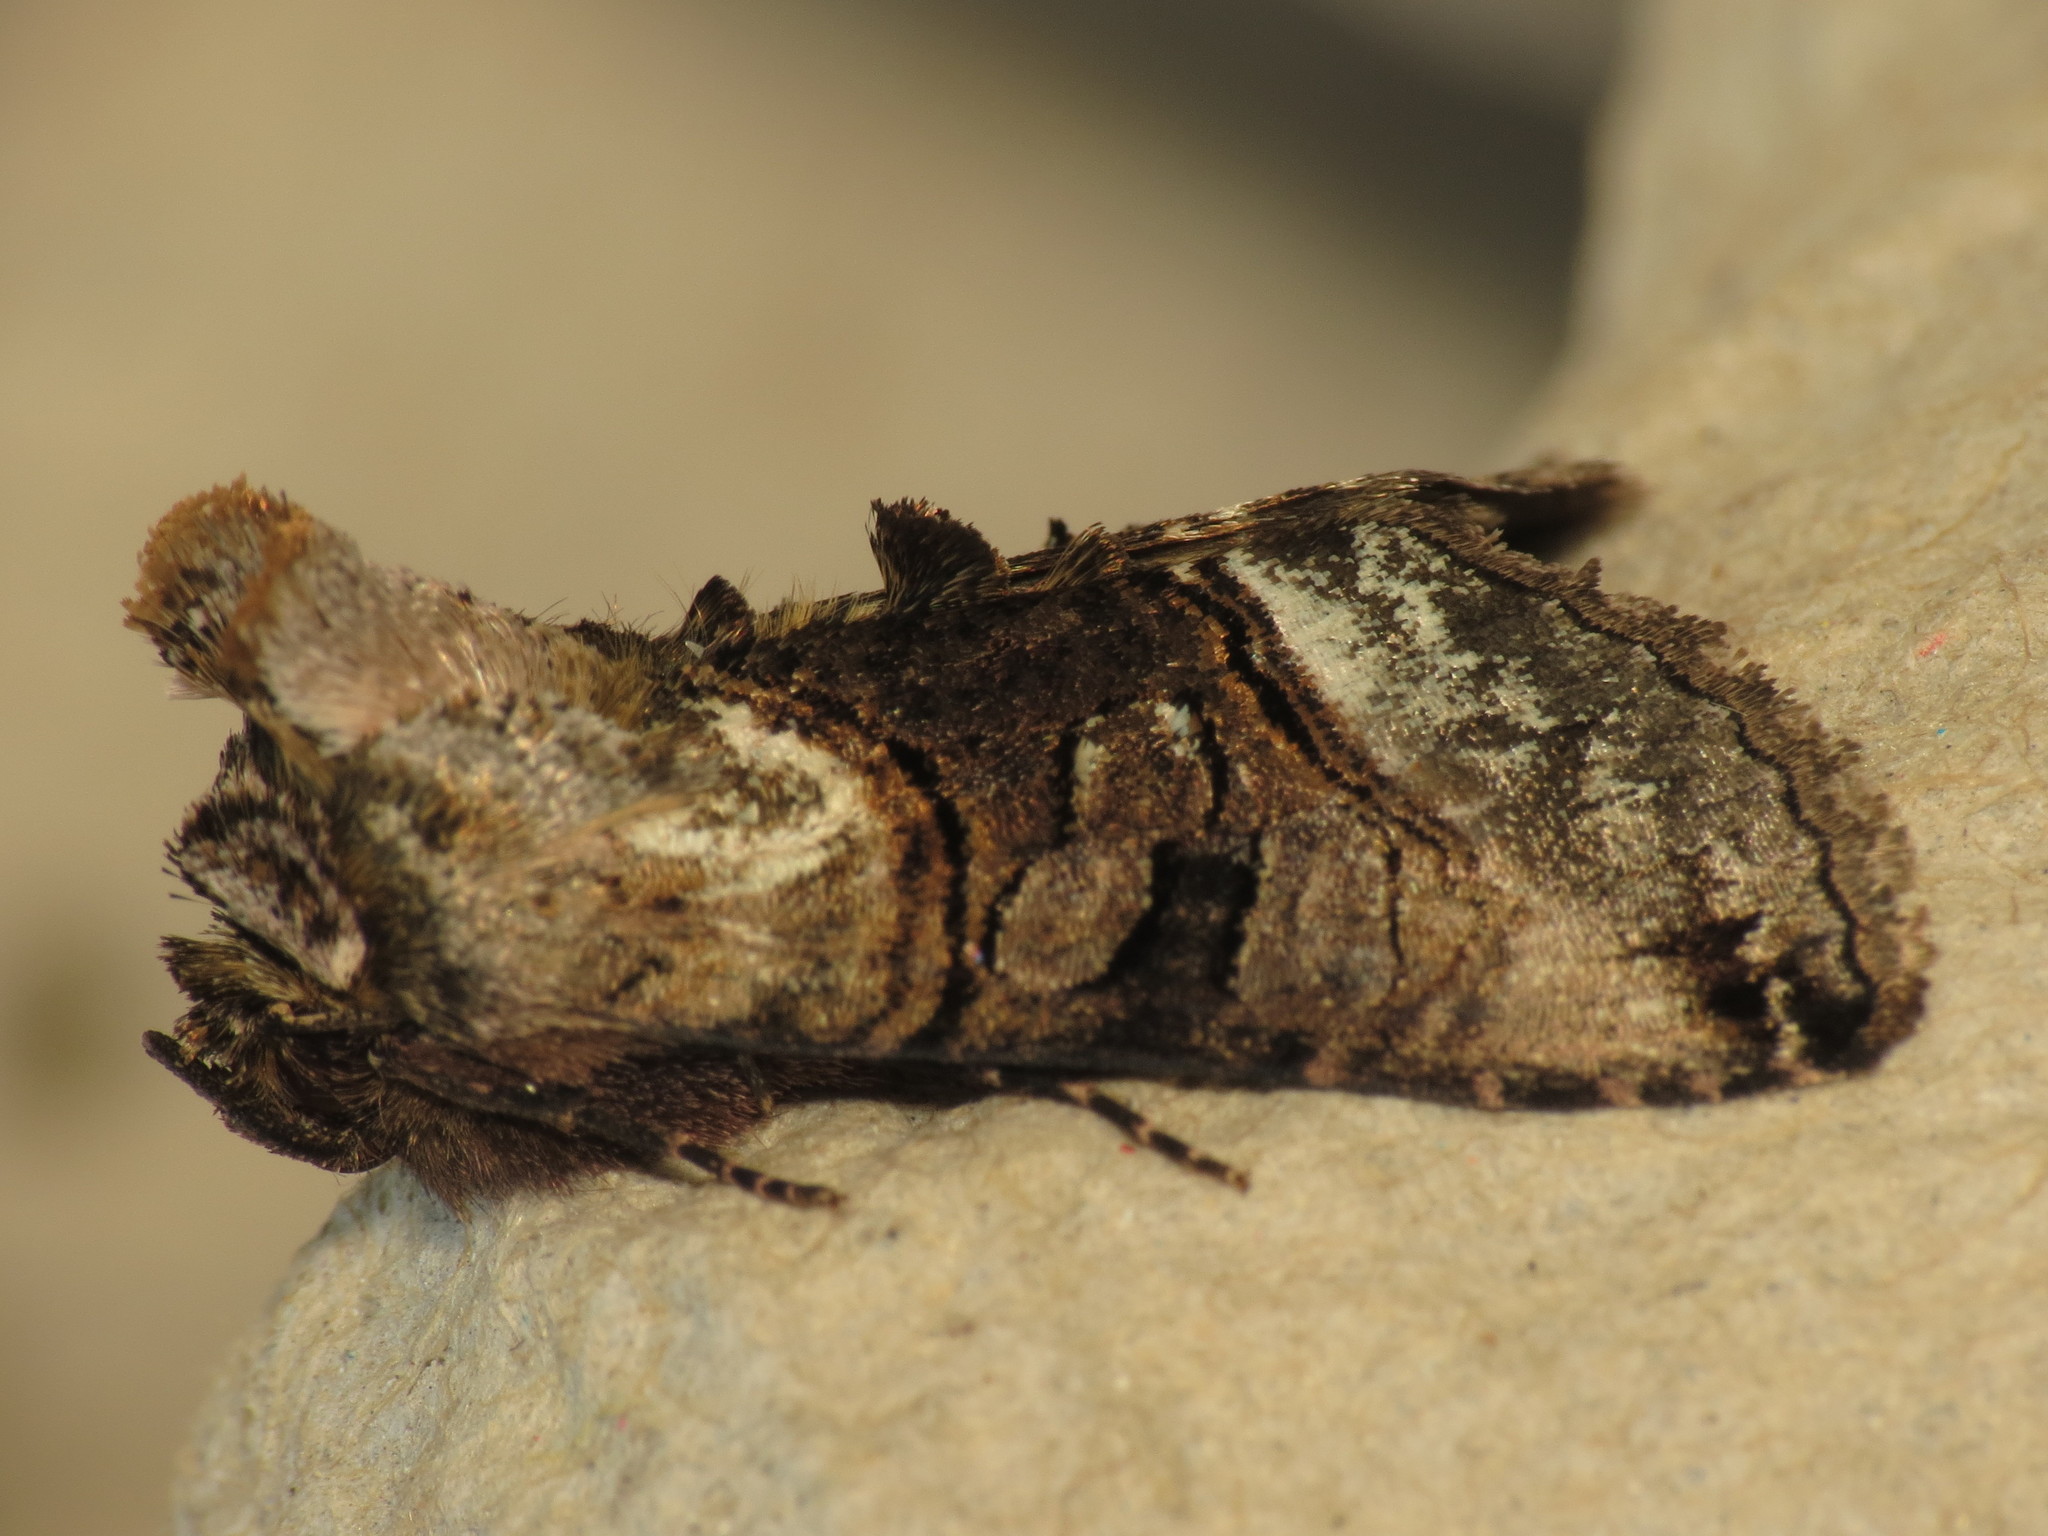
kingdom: Animalia
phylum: Arthropoda
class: Insecta
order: Lepidoptera
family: Noctuidae
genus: Abrostola
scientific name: Abrostola tripartita
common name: Spectacle
